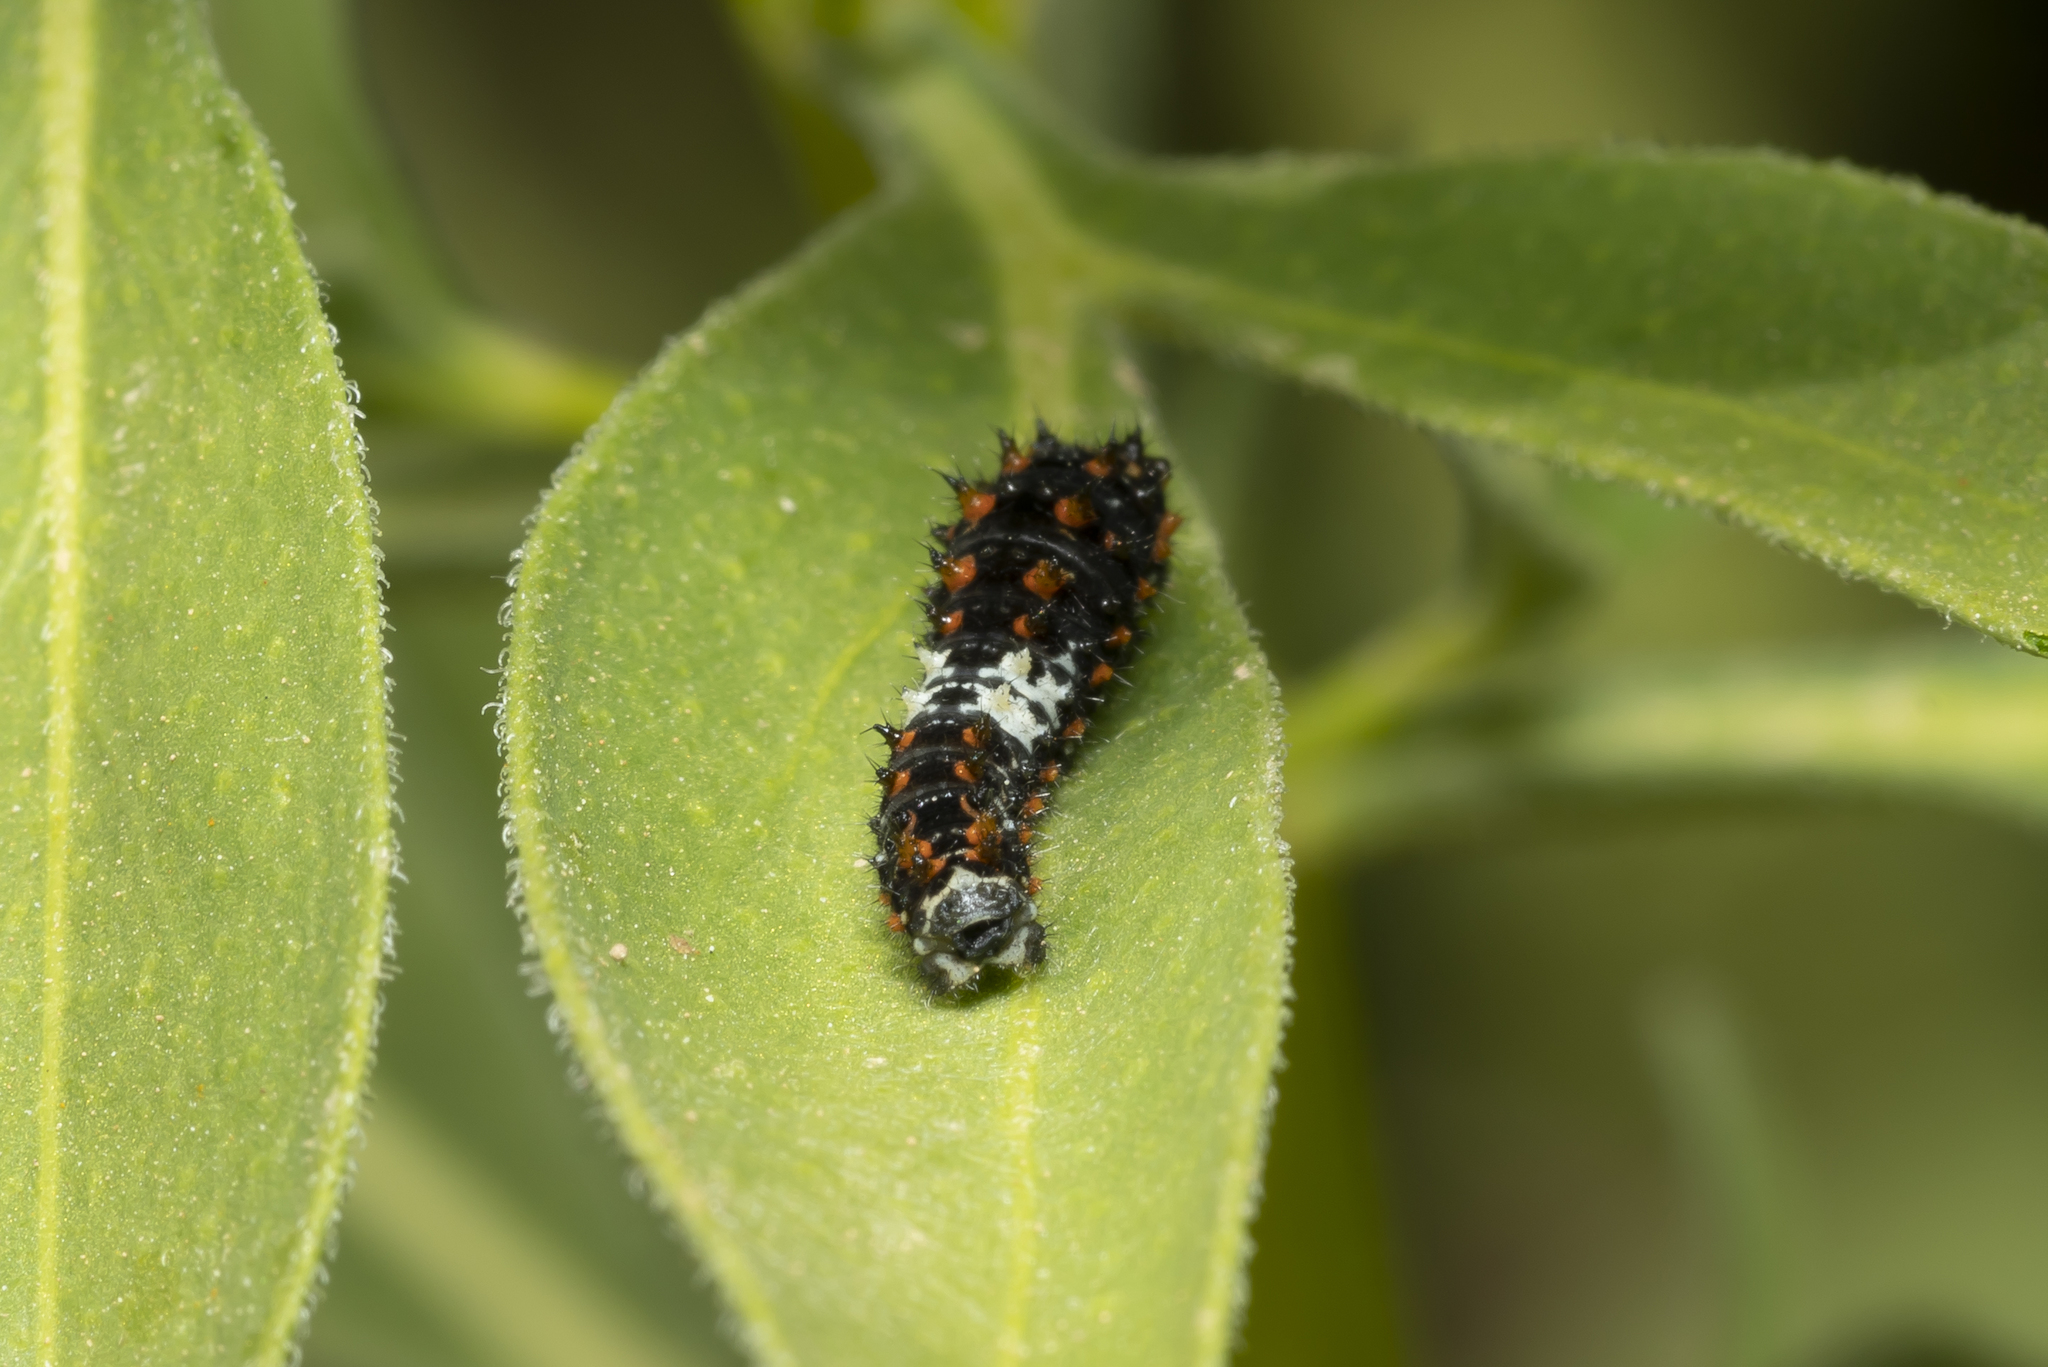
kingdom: Animalia
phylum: Arthropoda
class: Insecta
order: Lepidoptera
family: Papilionidae
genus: Papilio
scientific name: Papilio machaon
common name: Swallowtail
